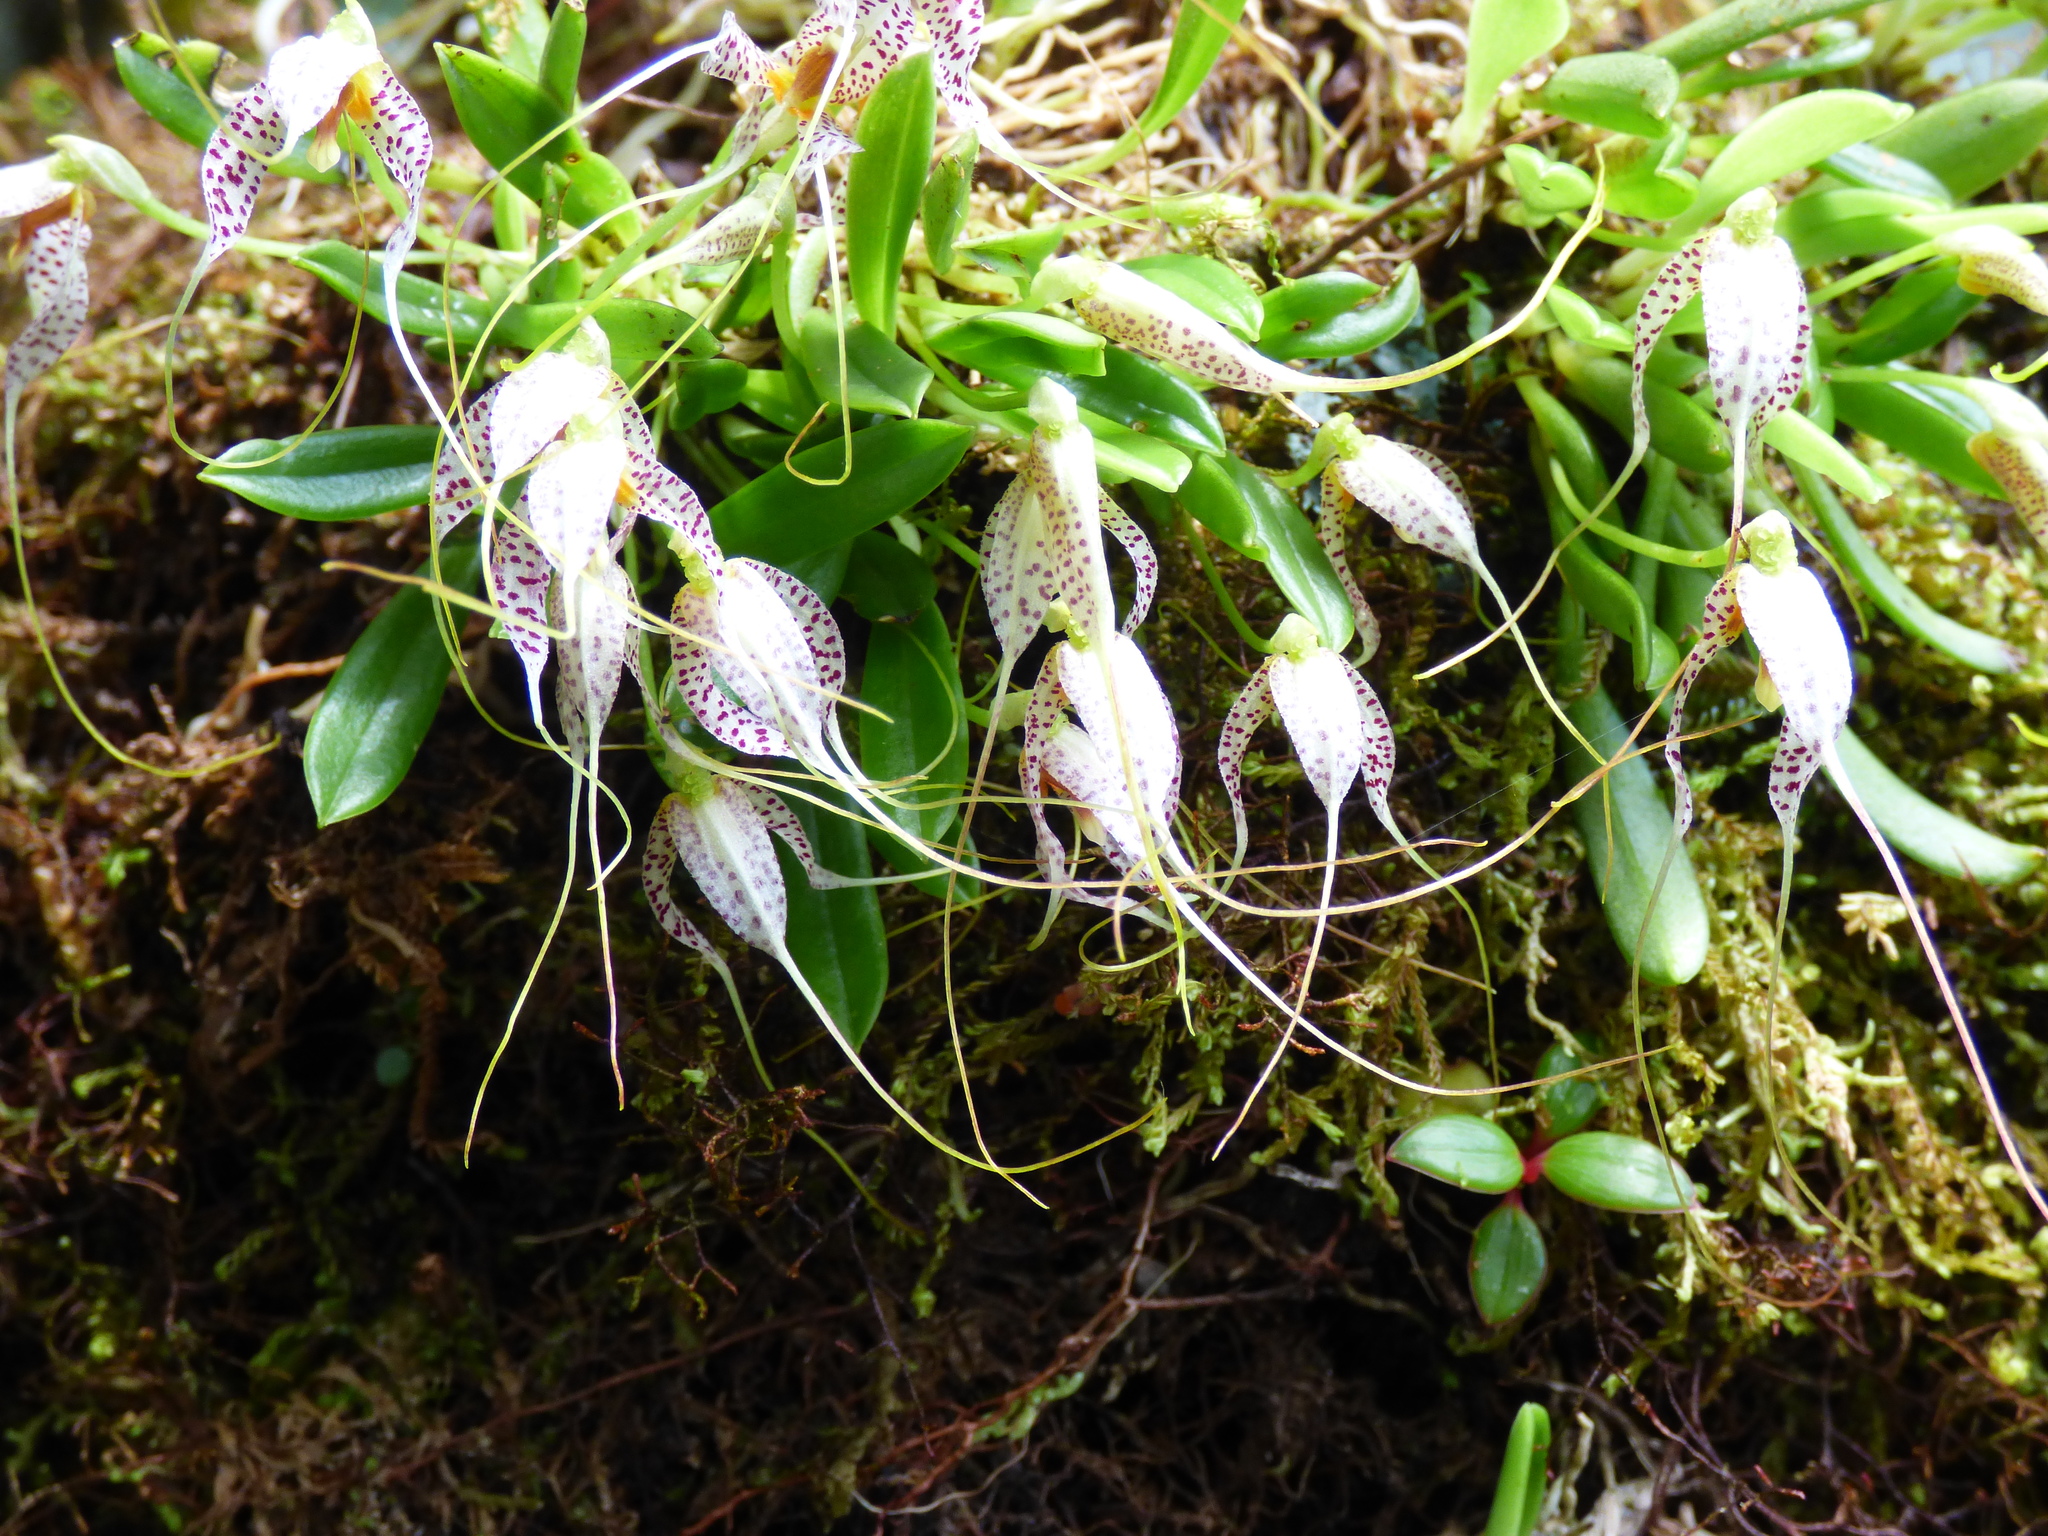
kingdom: Plantae
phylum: Tracheophyta
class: Liliopsida
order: Asparagales
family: Orchidaceae
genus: Masdevallia
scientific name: Masdevallia picturata
